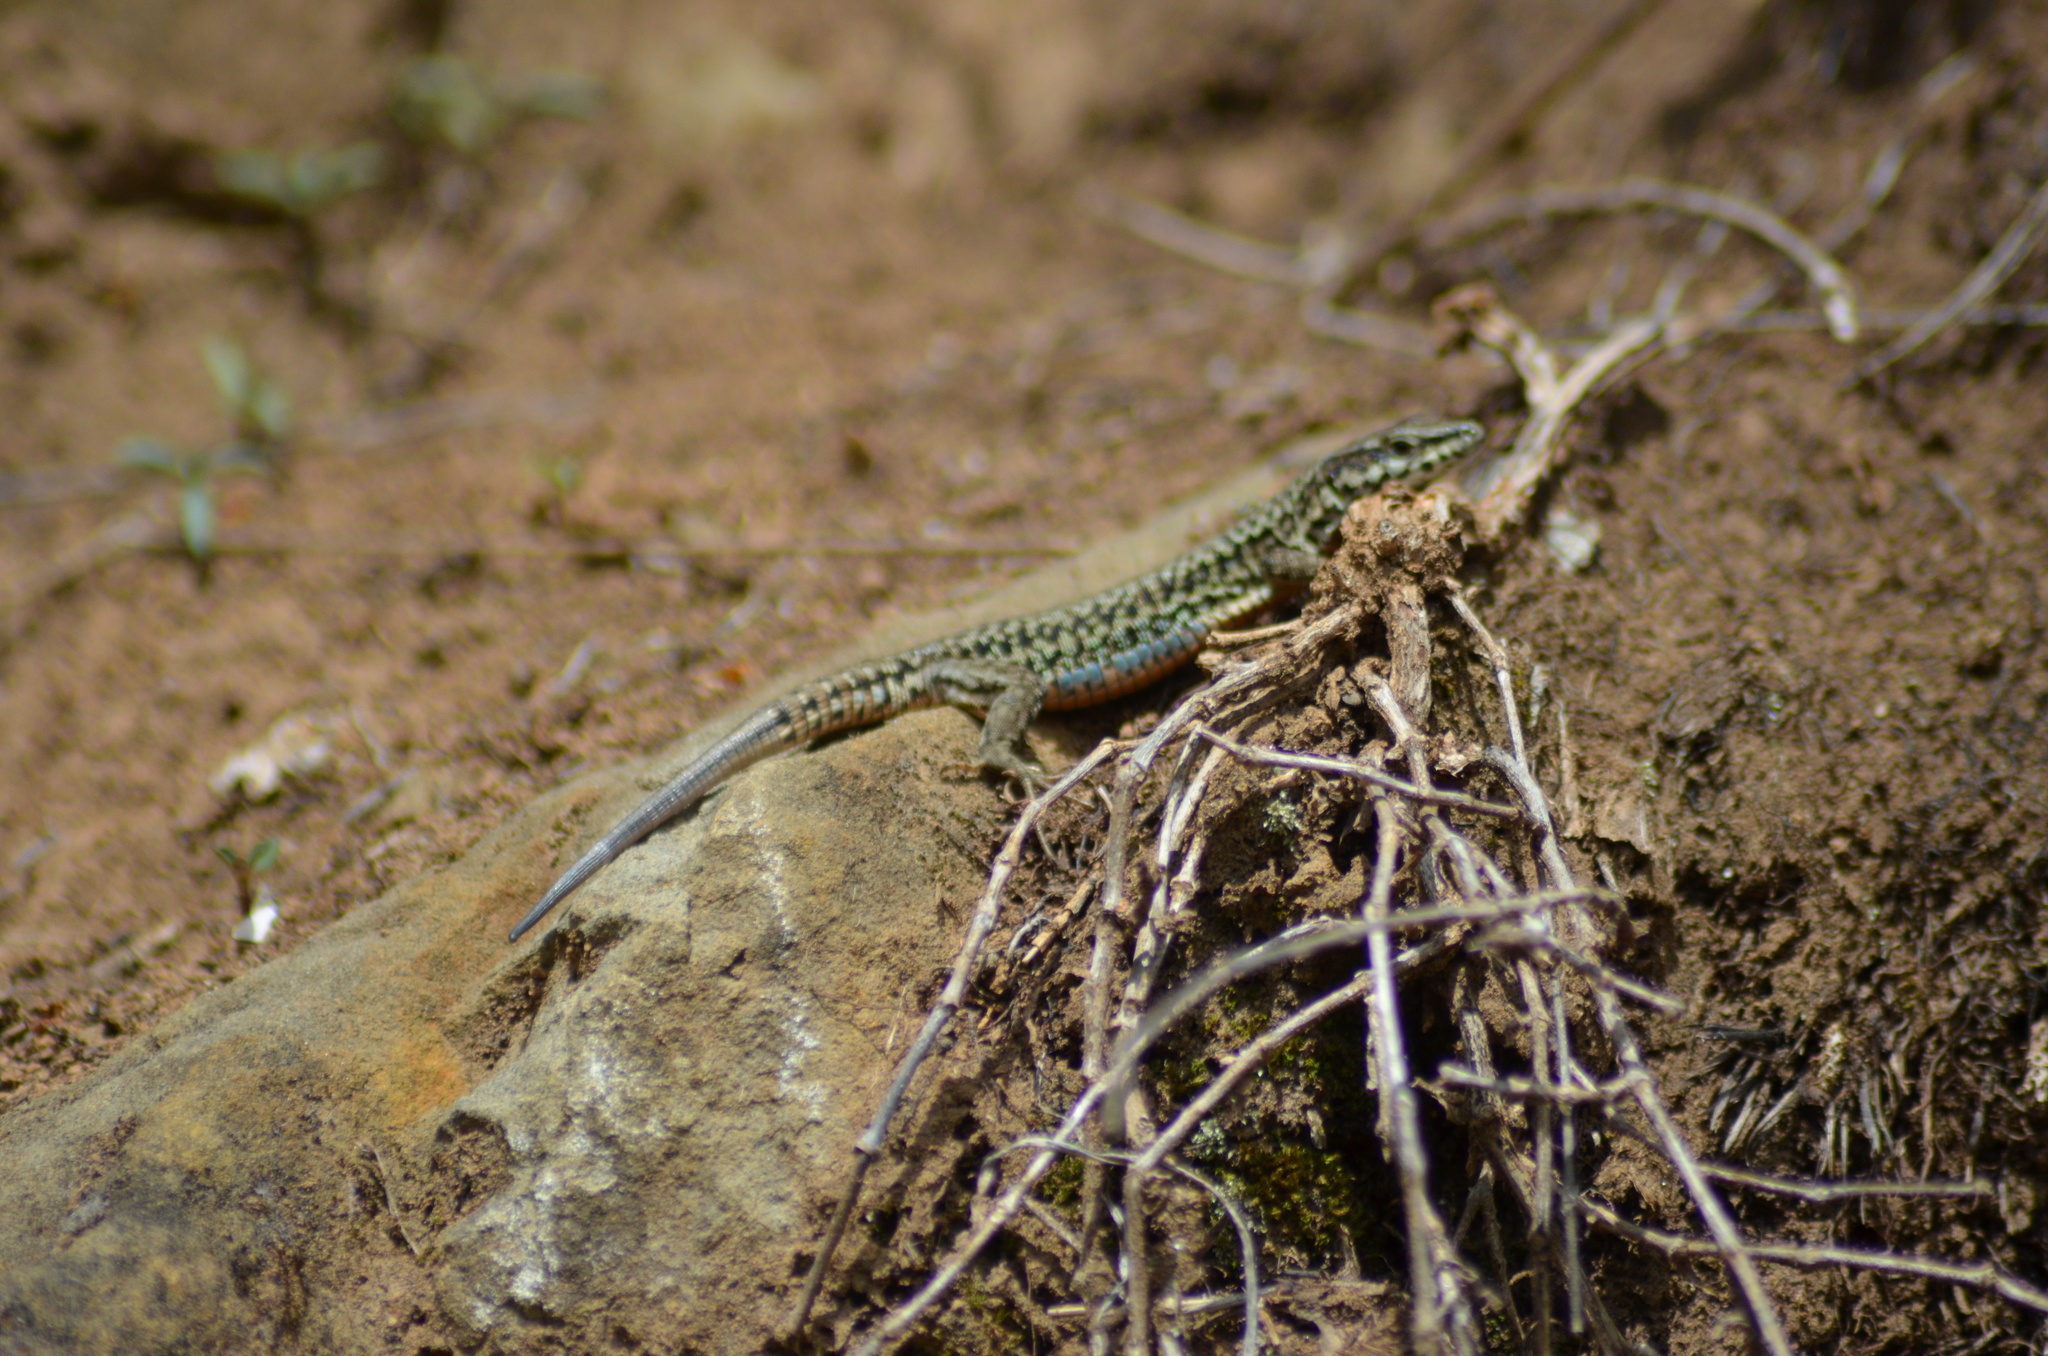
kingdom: Animalia
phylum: Chordata
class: Squamata
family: Lacertidae
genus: Podarcis
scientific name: Podarcis muralis
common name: Common wall lizard
